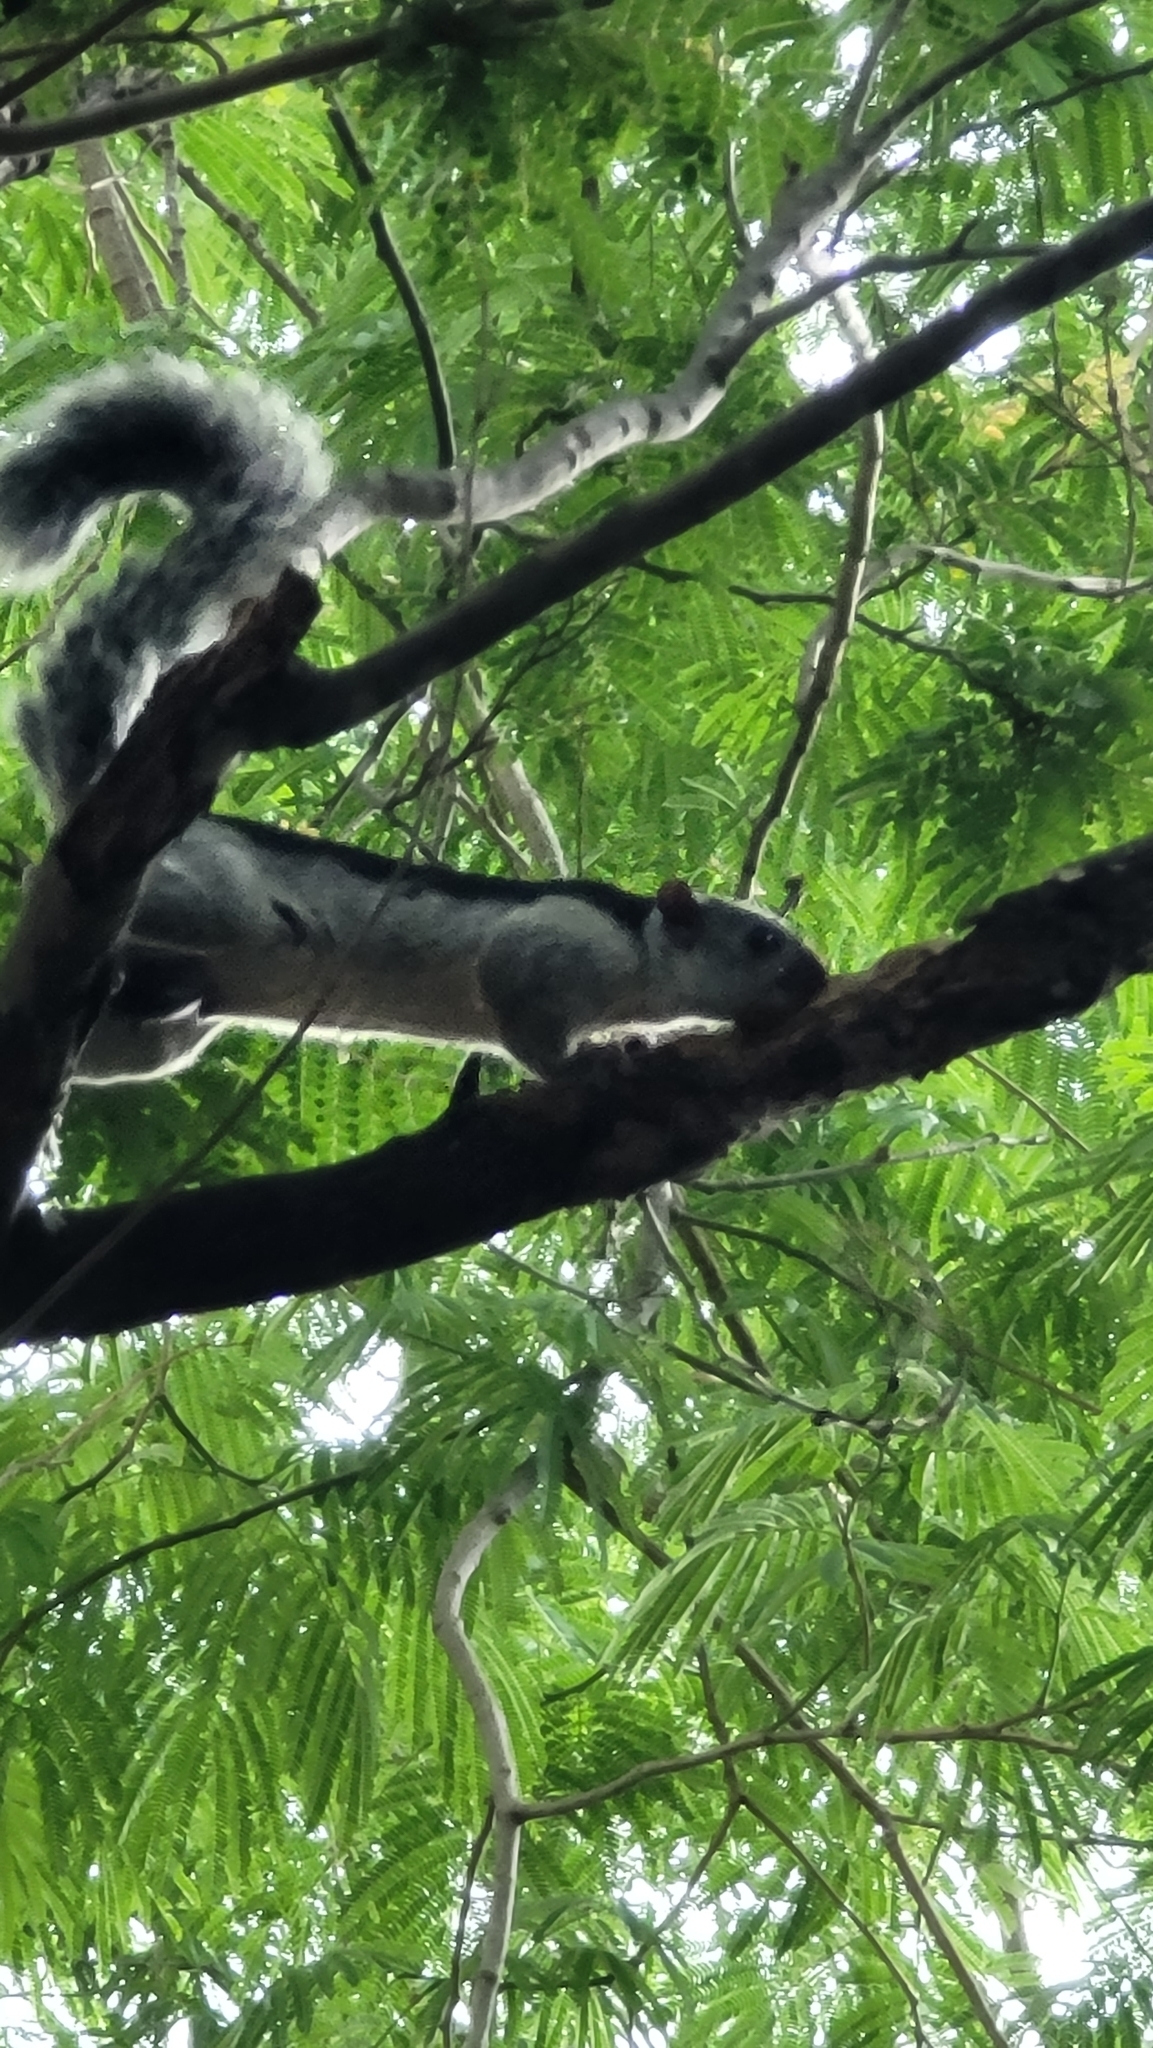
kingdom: Animalia
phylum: Chordata
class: Mammalia
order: Rodentia
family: Sciuridae
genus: Sciurus
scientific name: Sciurus variegatoides
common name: Variegated squirrel
